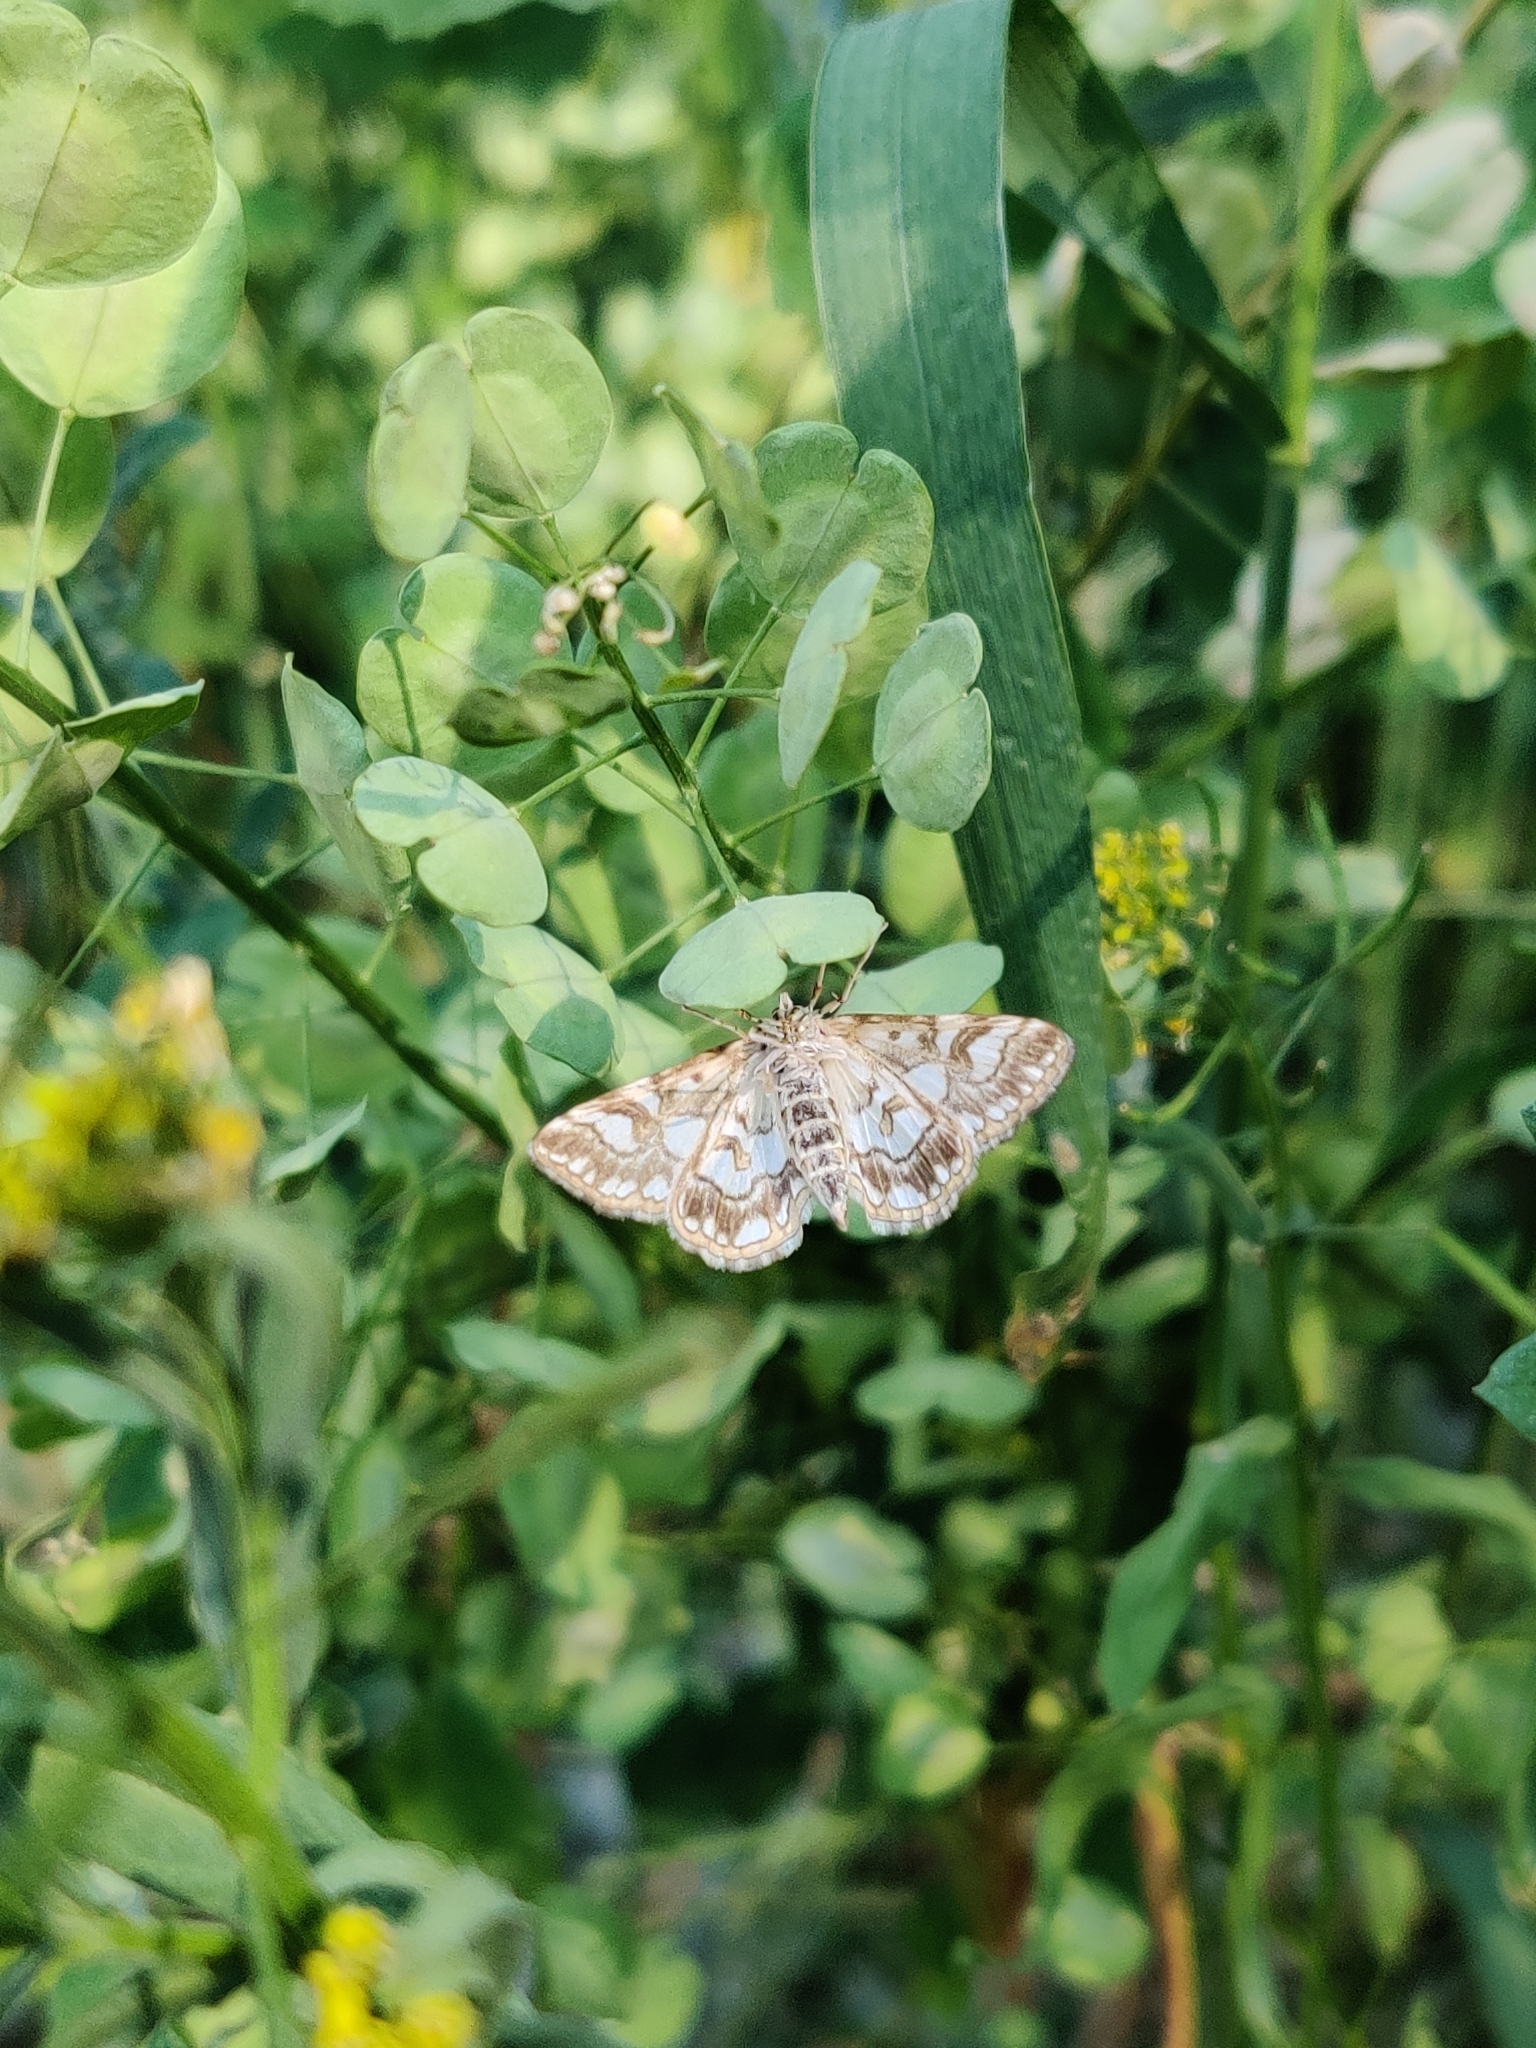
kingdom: Animalia
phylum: Arthropoda
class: Insecta
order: Lepidoptera
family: Crambidae
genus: Elophila
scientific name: Elophila nymphaeata
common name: Brown china-mark
